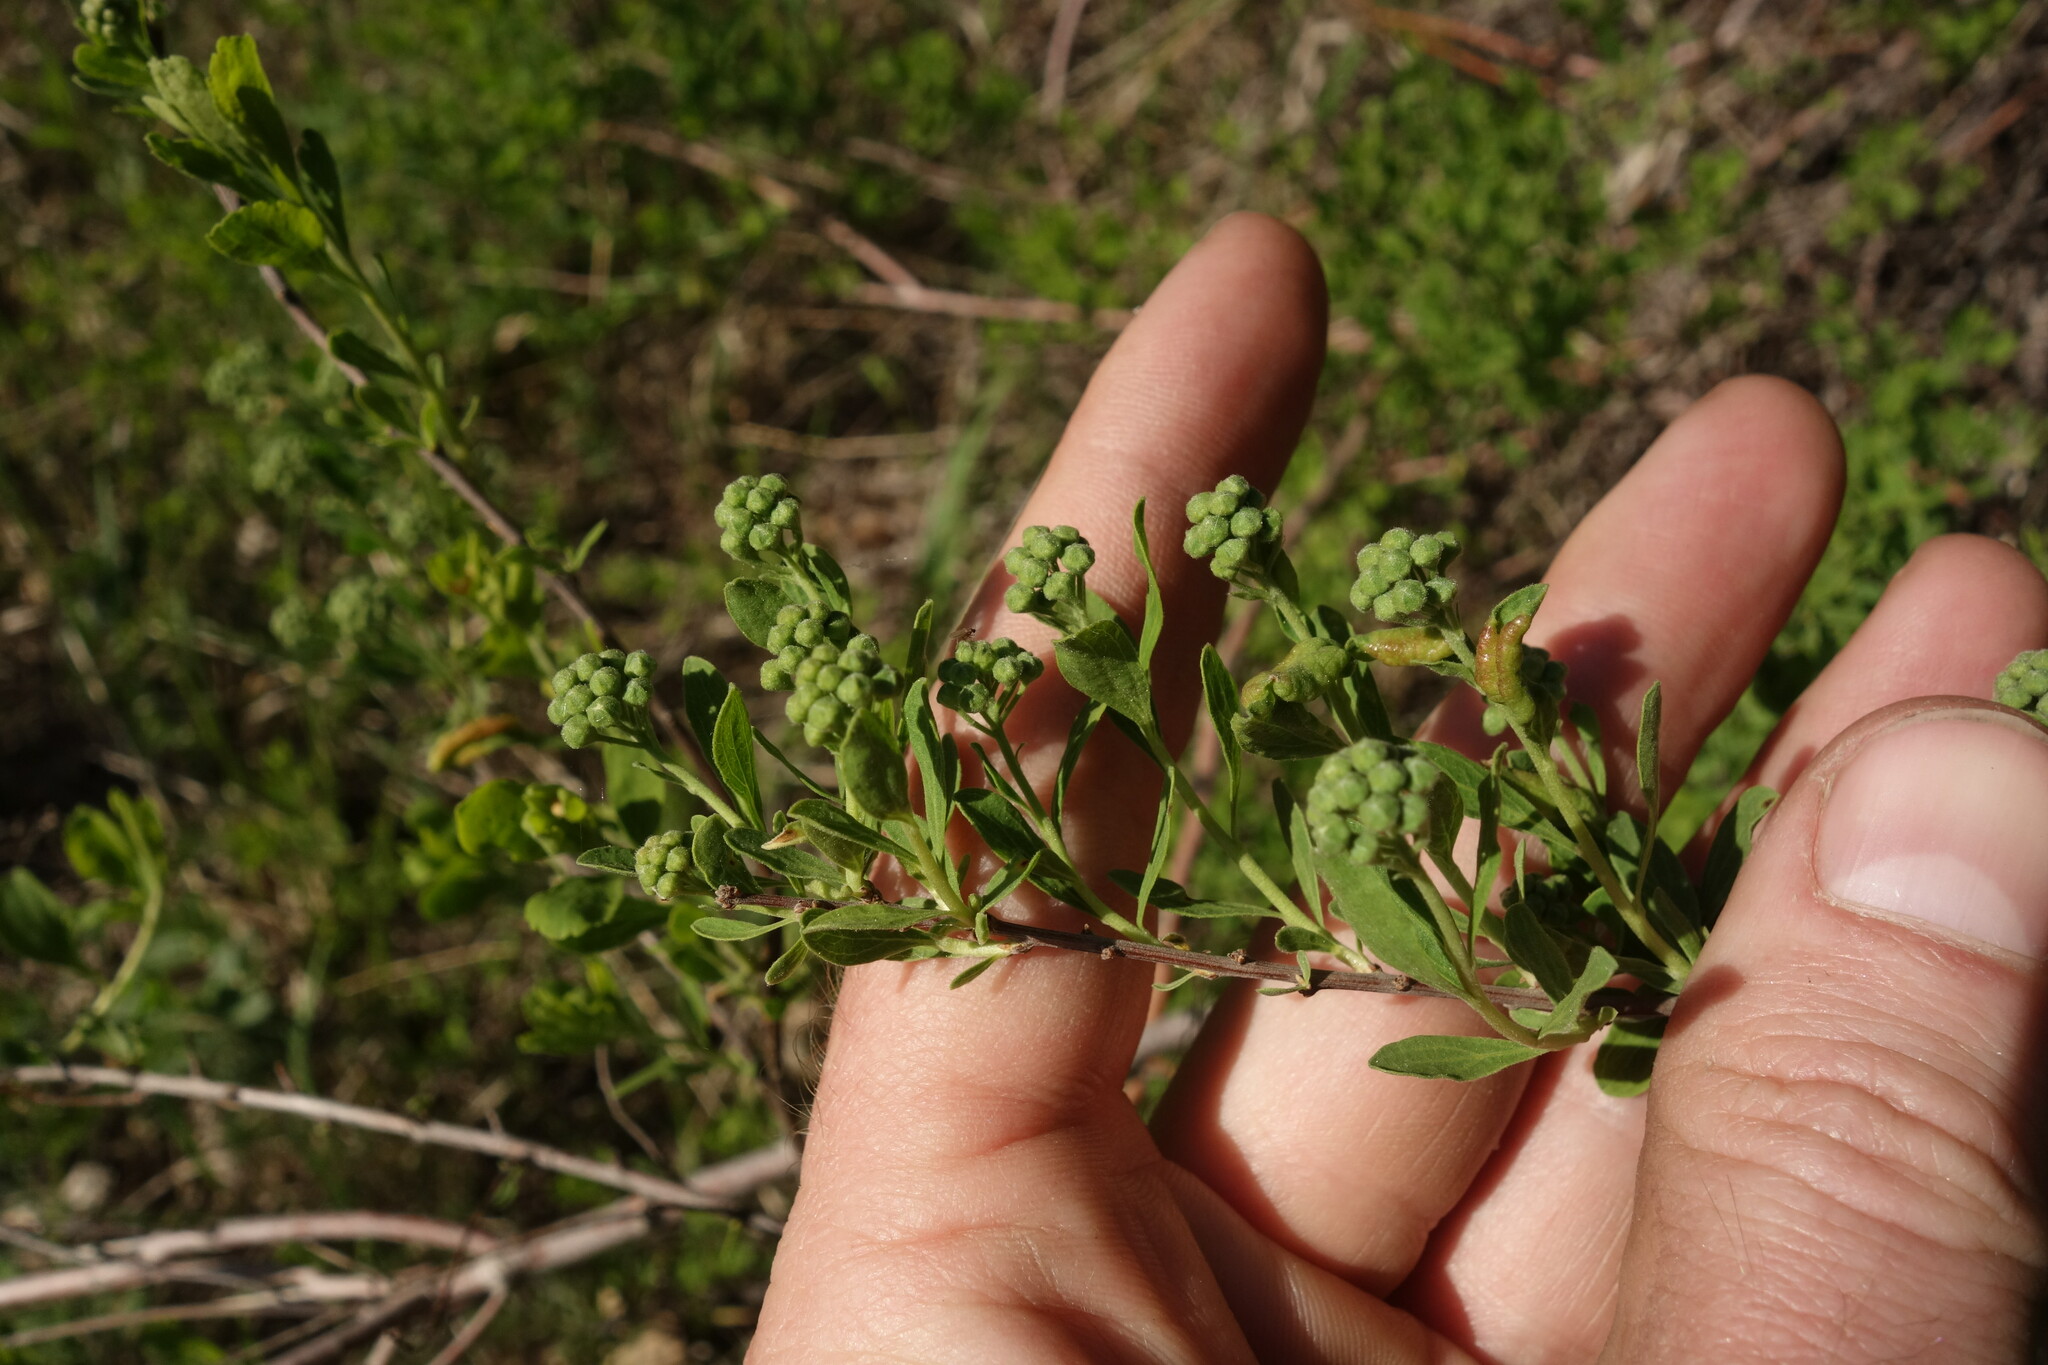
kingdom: Plantae
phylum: Tracheophyta
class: Magnoliopsida
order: Rosales
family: Rosaceae
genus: Spiraea
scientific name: Spiraea crenata
